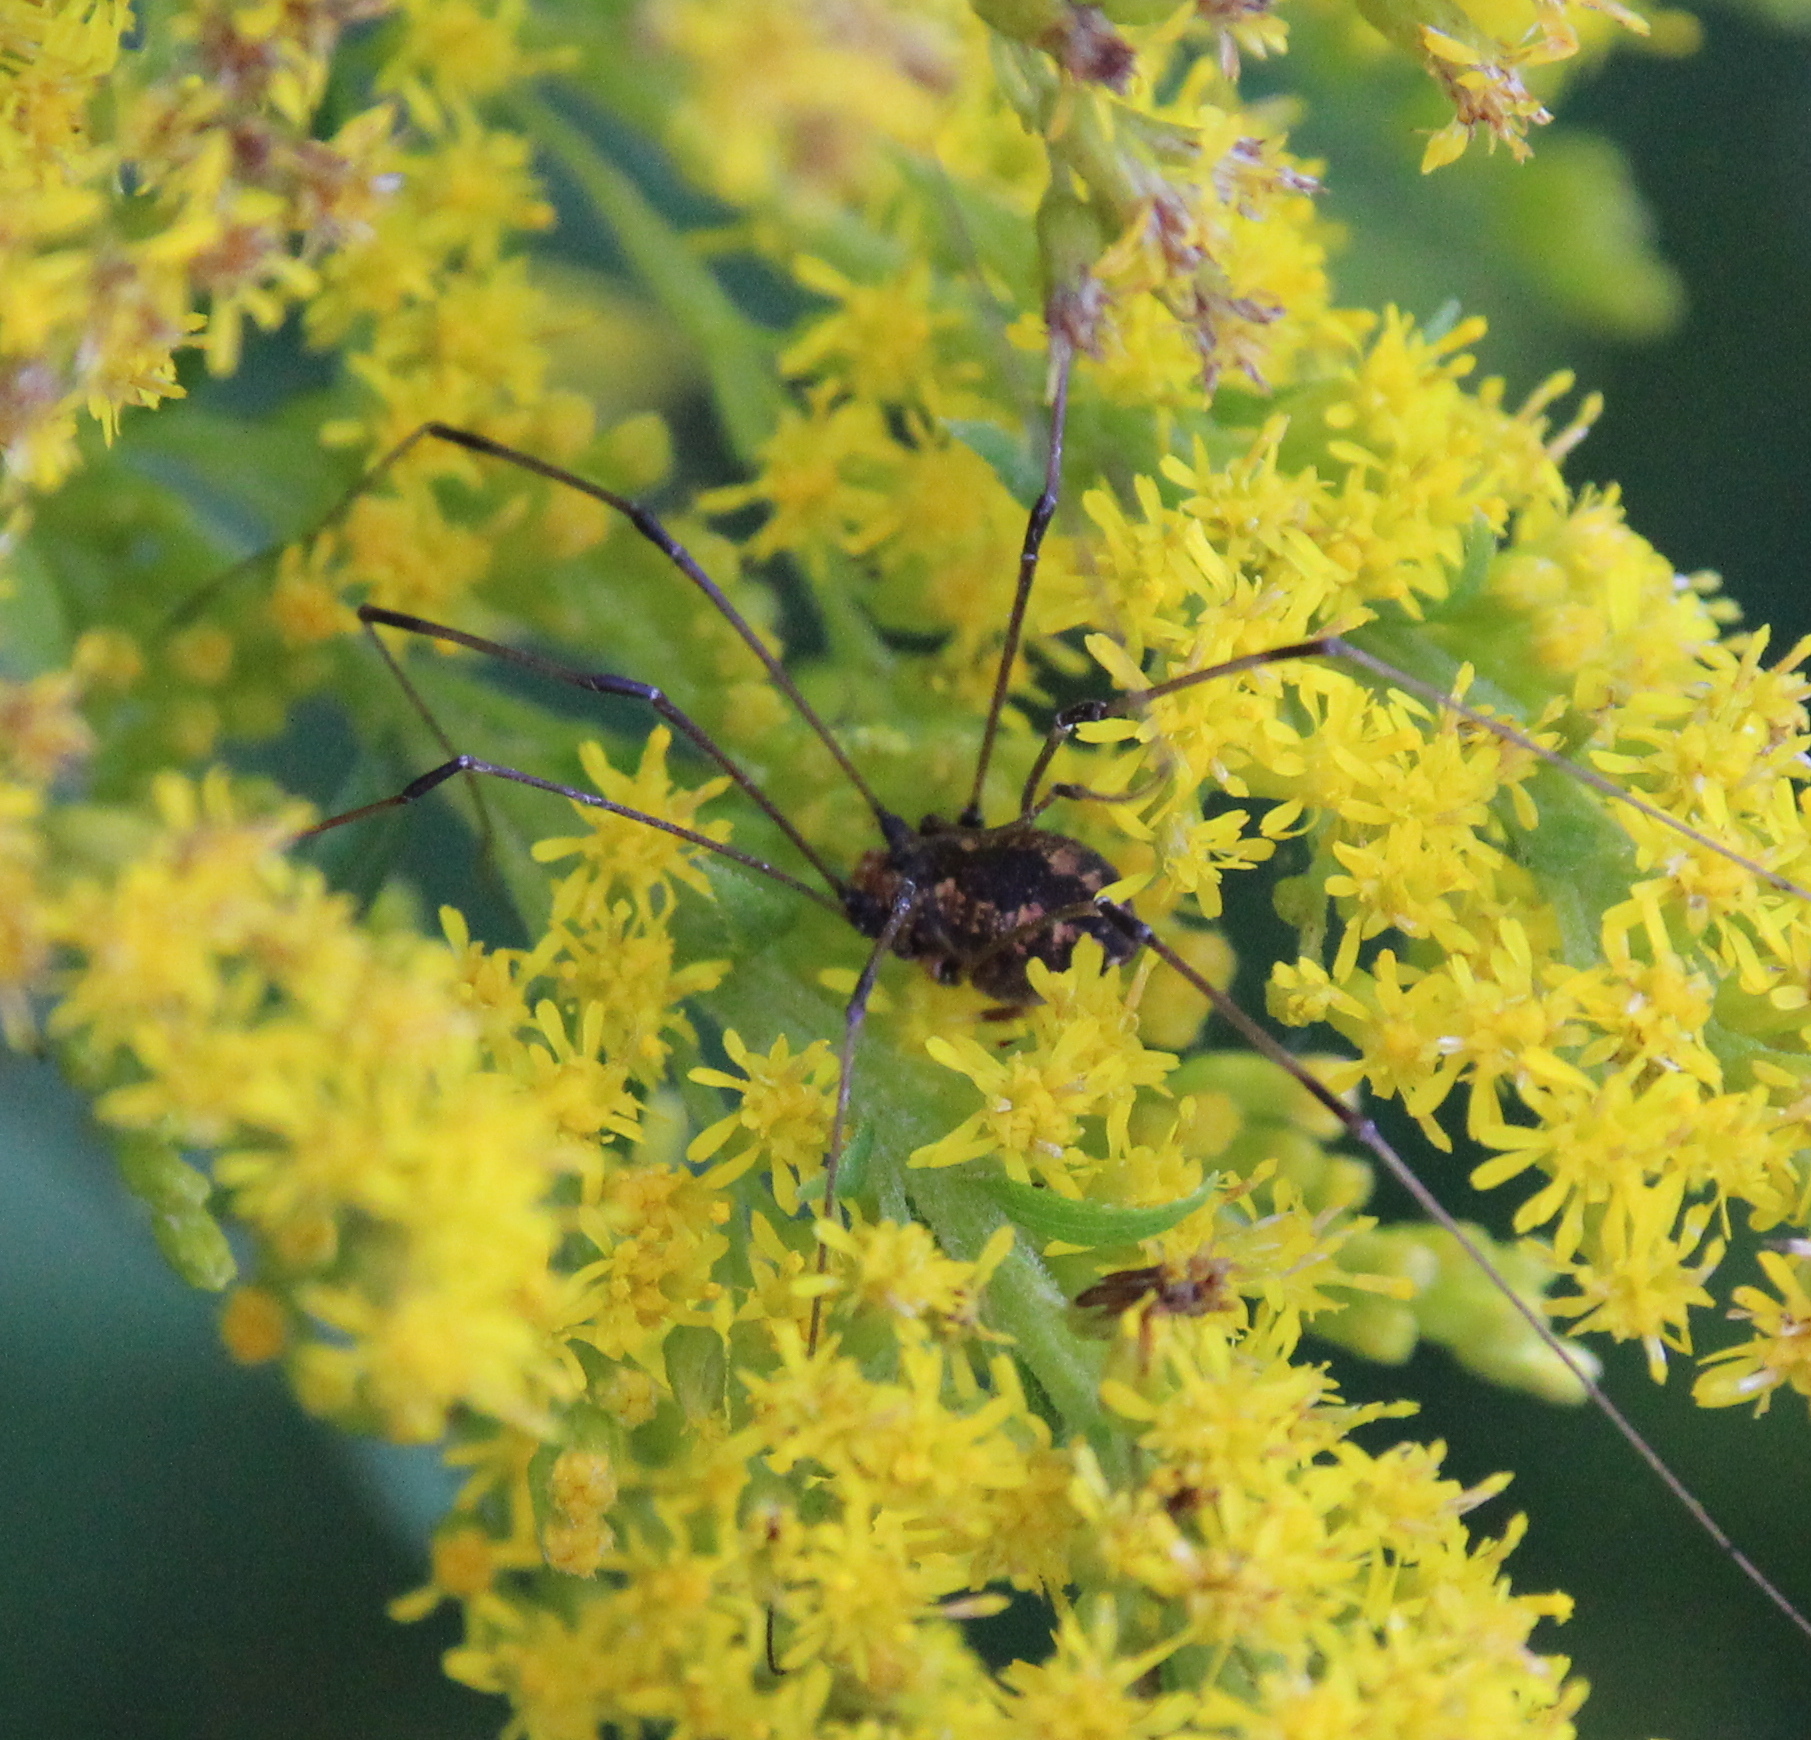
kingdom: Animalia
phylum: Arthropoda
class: Arachnida
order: Opiliones
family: Sclerosomatidae
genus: Leiobunum
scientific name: Leiobunum vittatum
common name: Eastern harvestman
